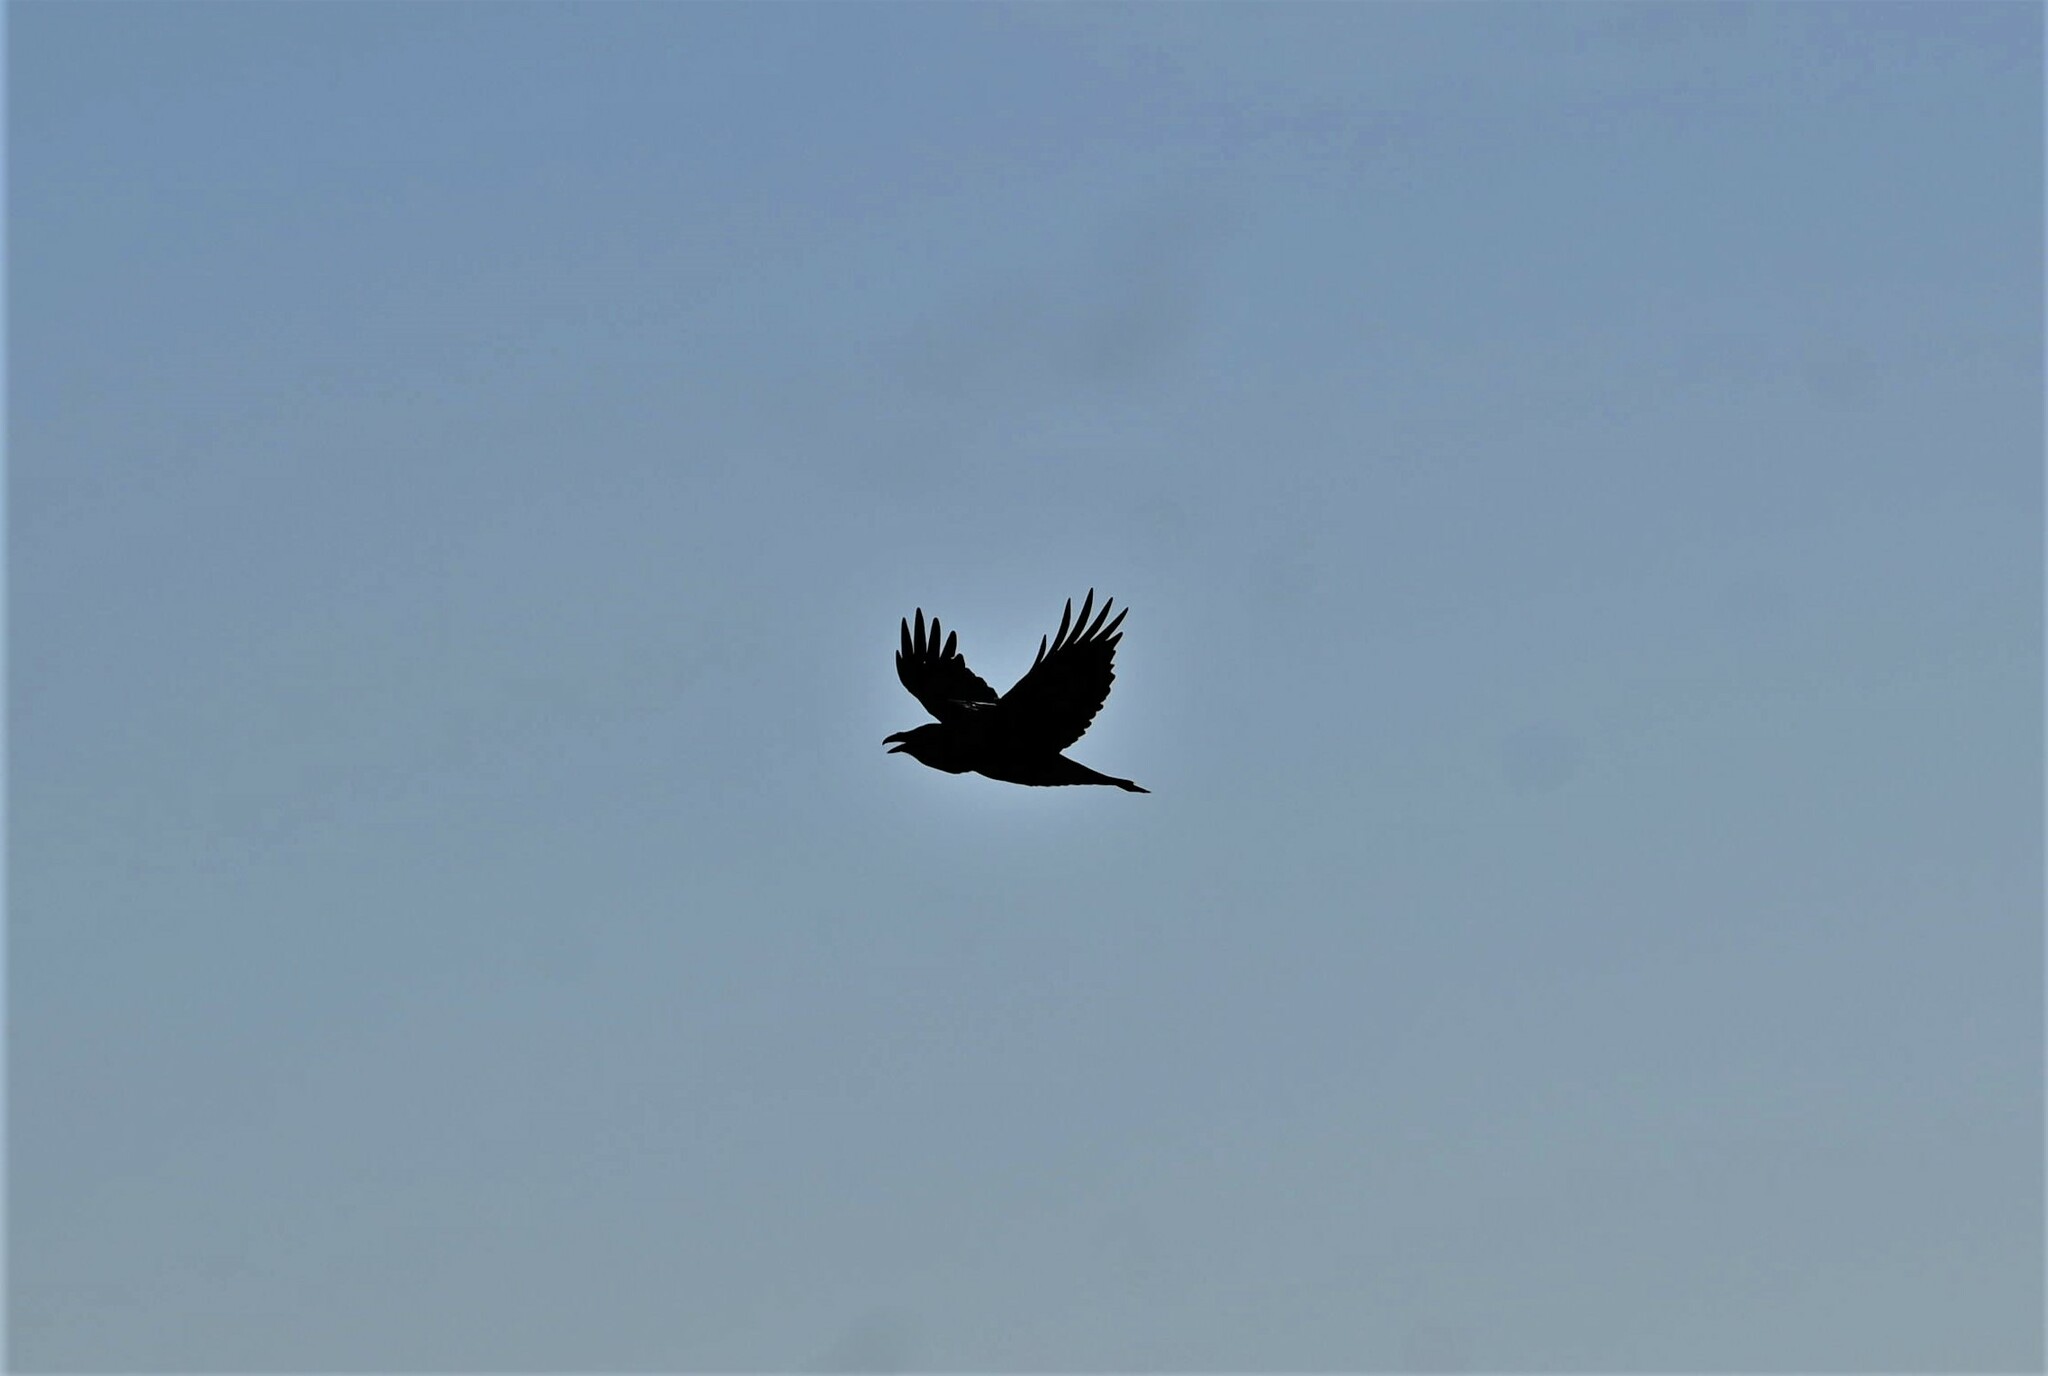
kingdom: Animalia
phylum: Chordata
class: Aves
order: Passeriformes
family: Corvidae
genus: Corvus
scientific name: Corvus corax
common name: Common raven
